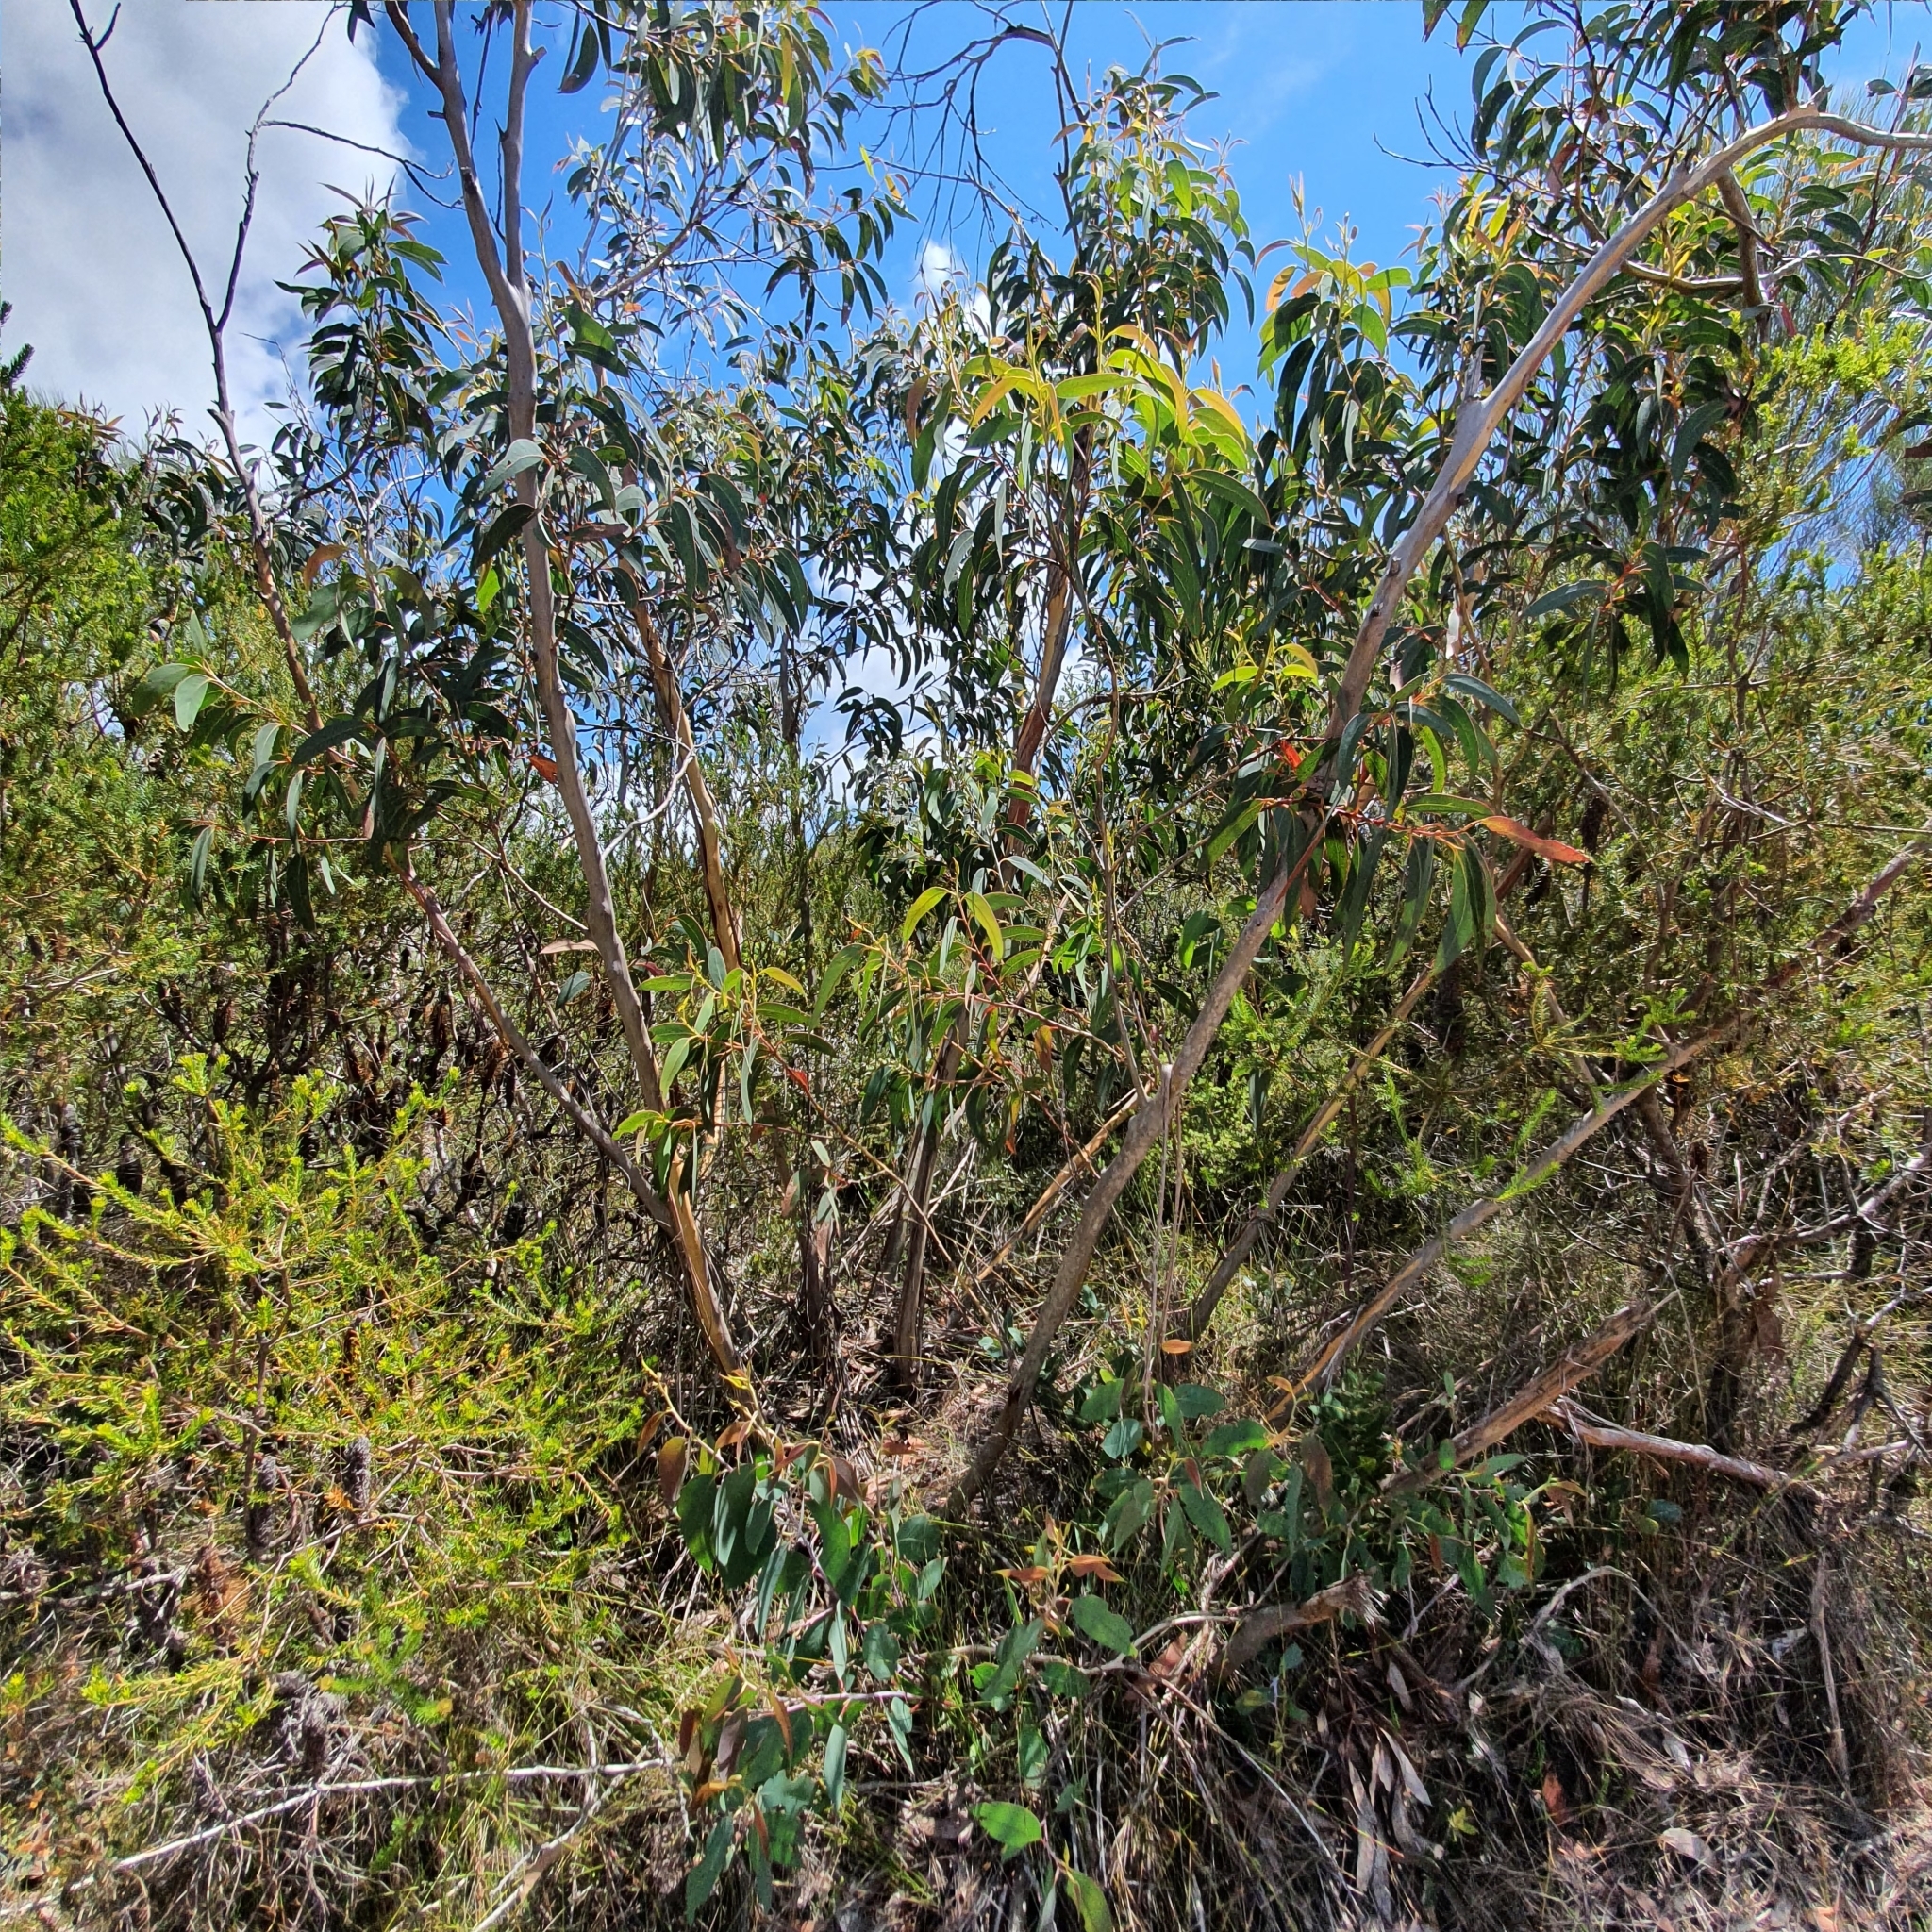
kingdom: Plantae
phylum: Tracheophyta
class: Magnoliopsida
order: Myrtales
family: Myrtaceae
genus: Eucalyptus
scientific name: Eucalyptus luehmanniana
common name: Yellow-top mallee ash
